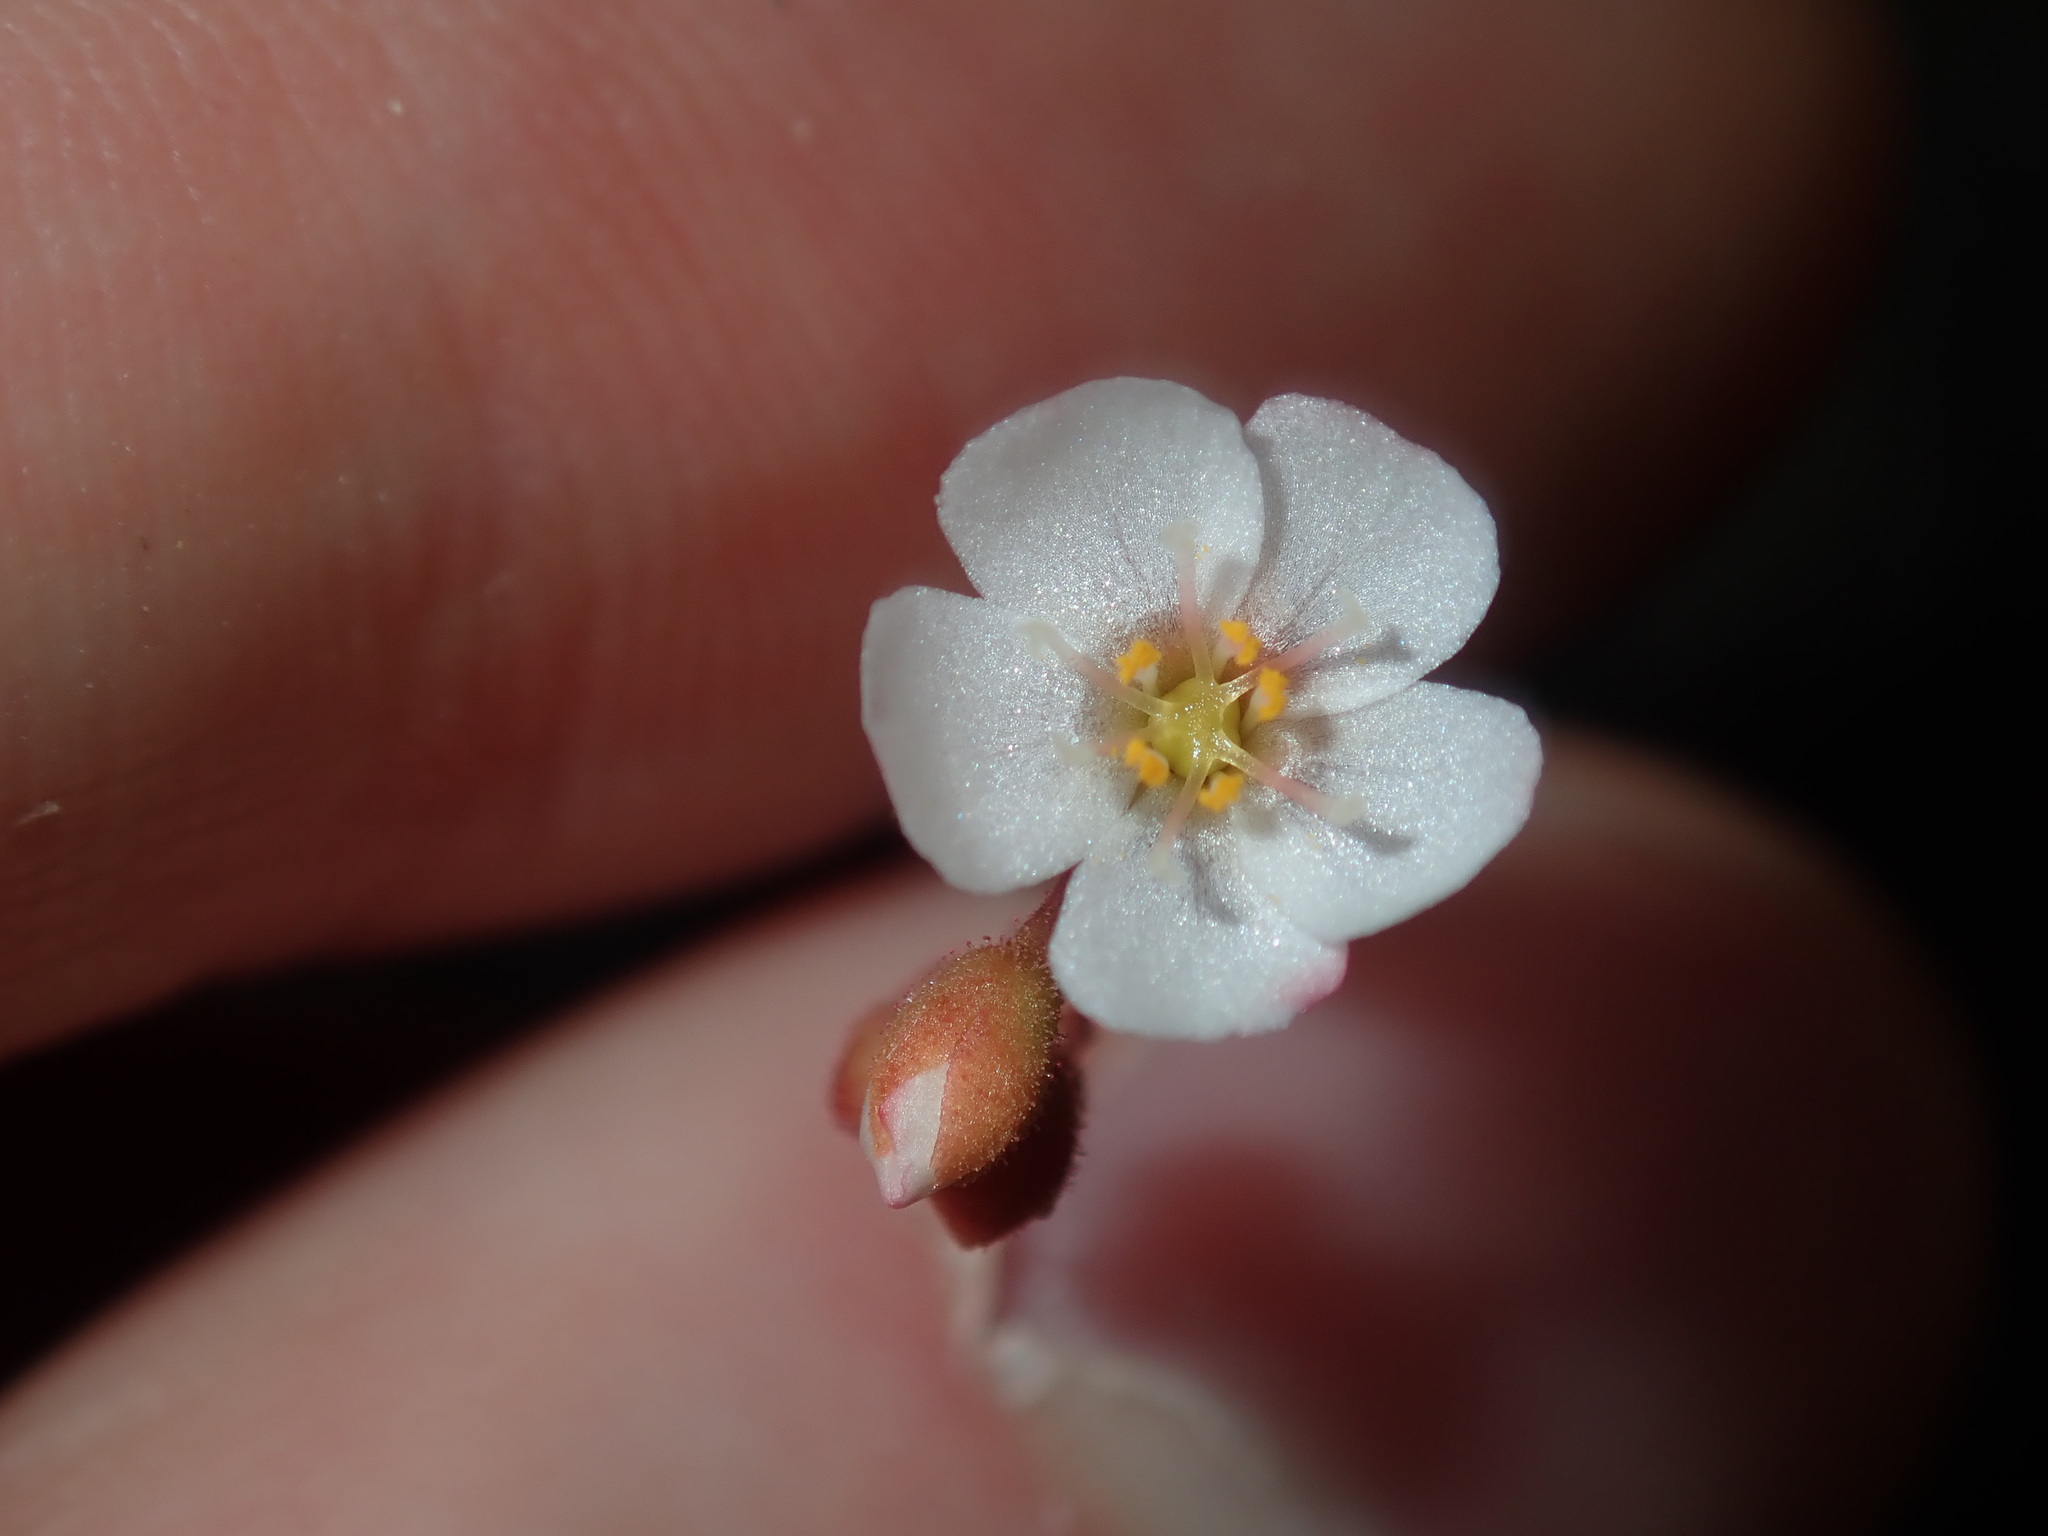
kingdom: Plantae
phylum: Tracheophyta
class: Magnoliopsida
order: Caryophyllales
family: Droseraceae
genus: Drosera
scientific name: Drosera spatulata
